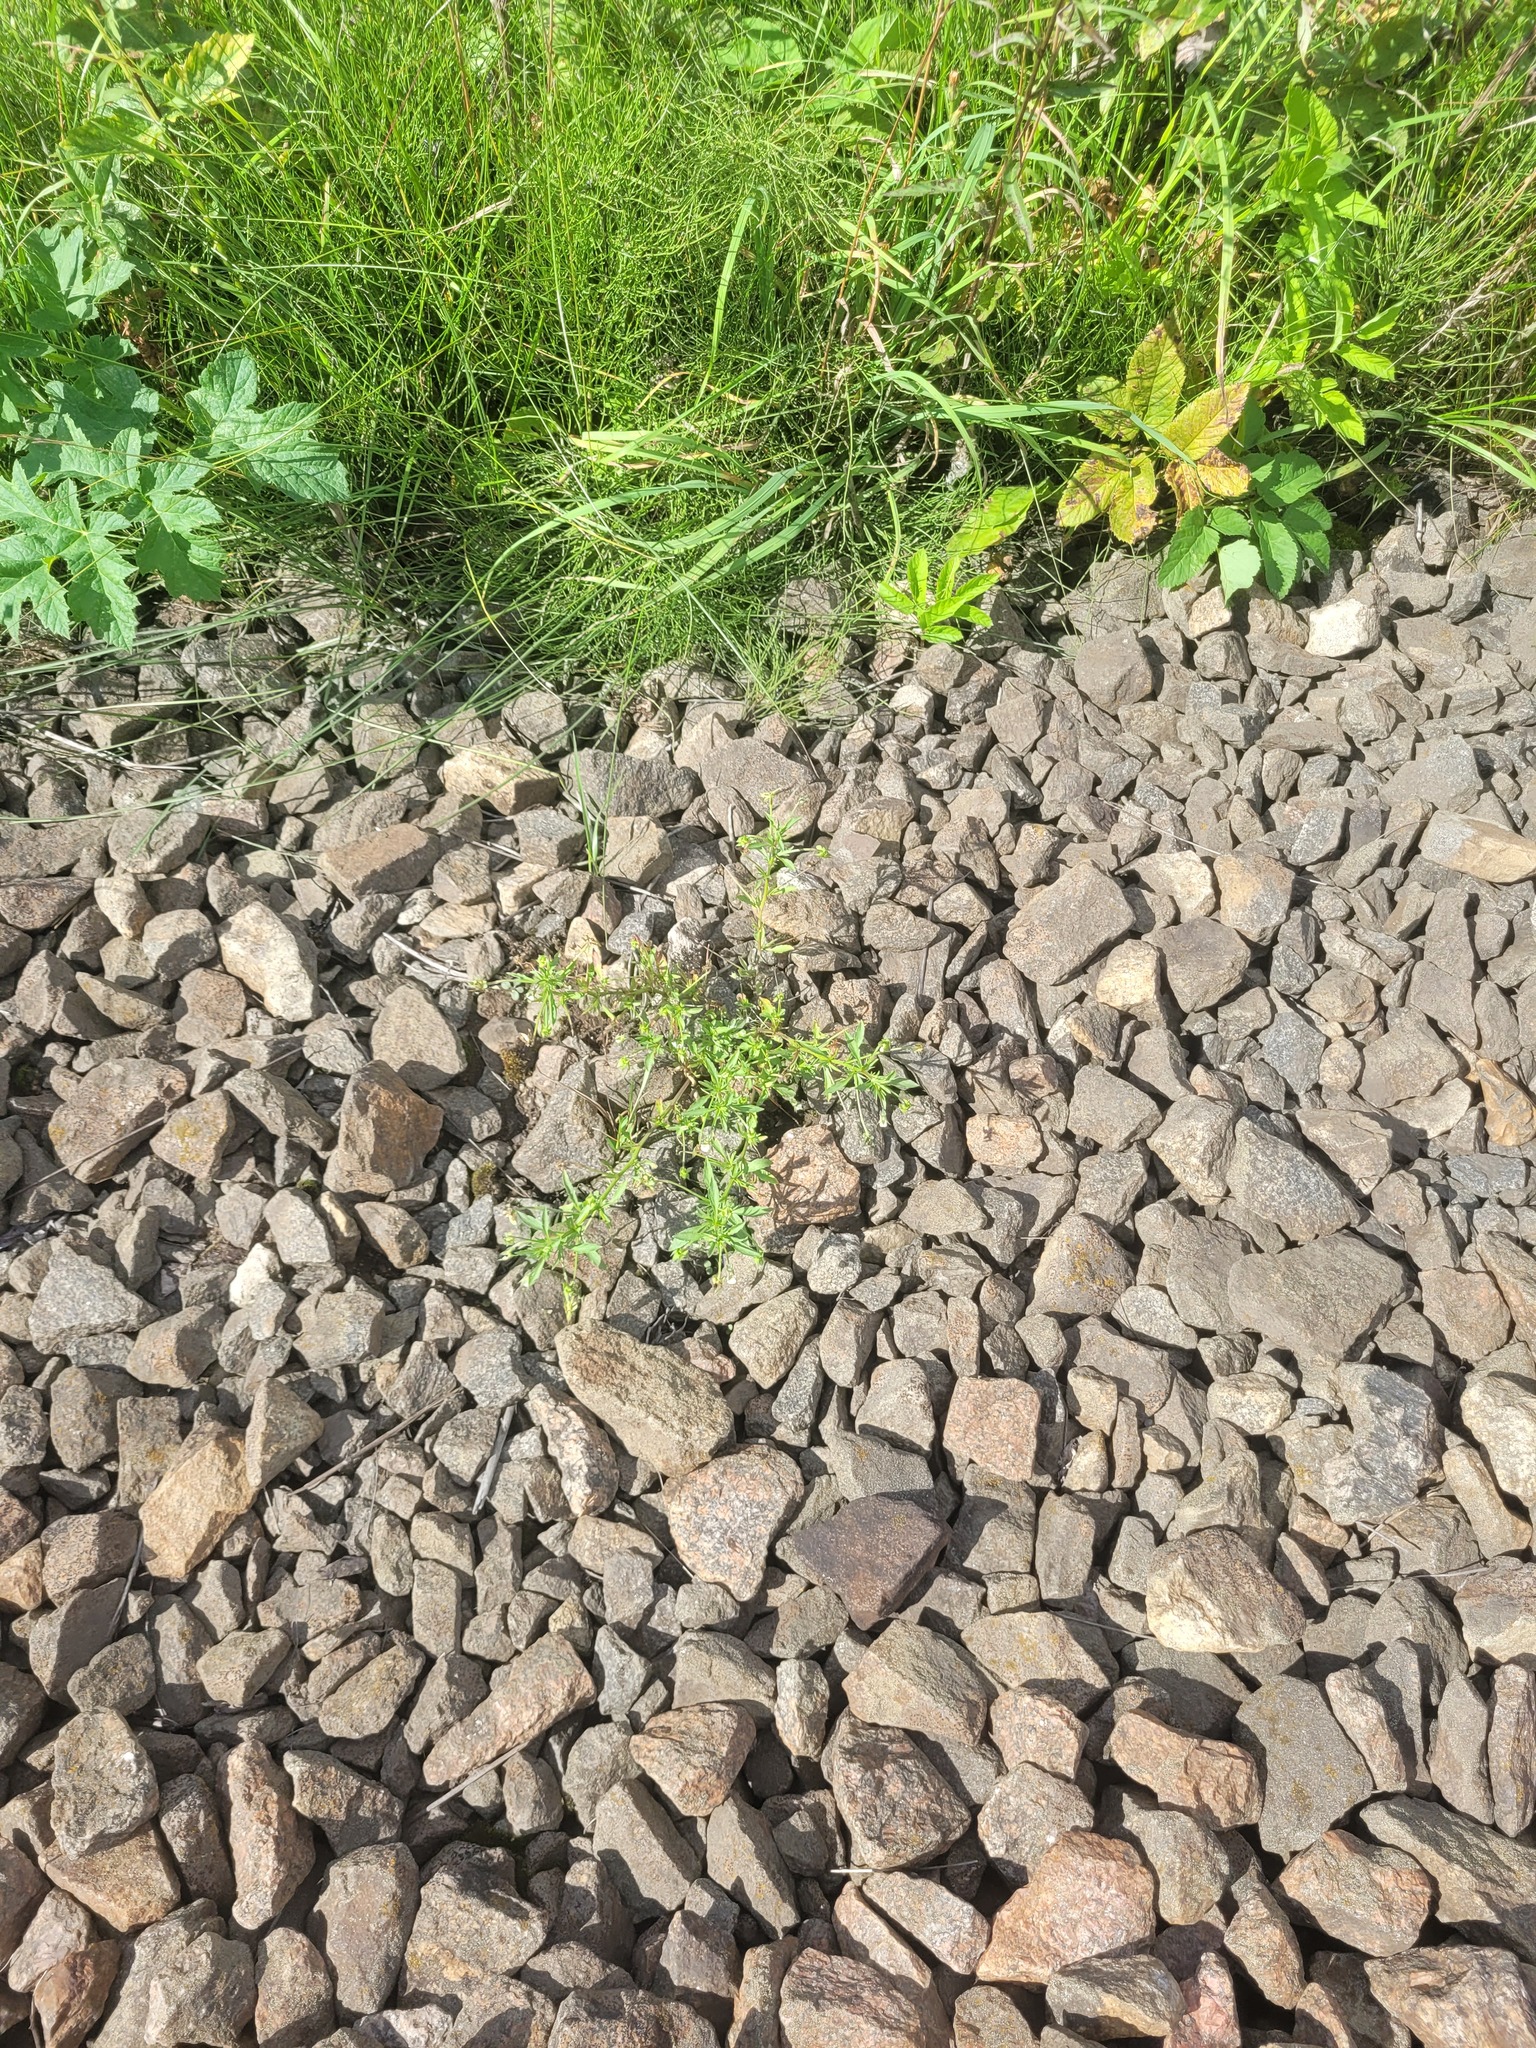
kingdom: Plantae
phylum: Tracheophyta
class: Magnoliopsida
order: Malpighiales
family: Violaceae
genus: Viola
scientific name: Viola arvensis
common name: Field pansy
